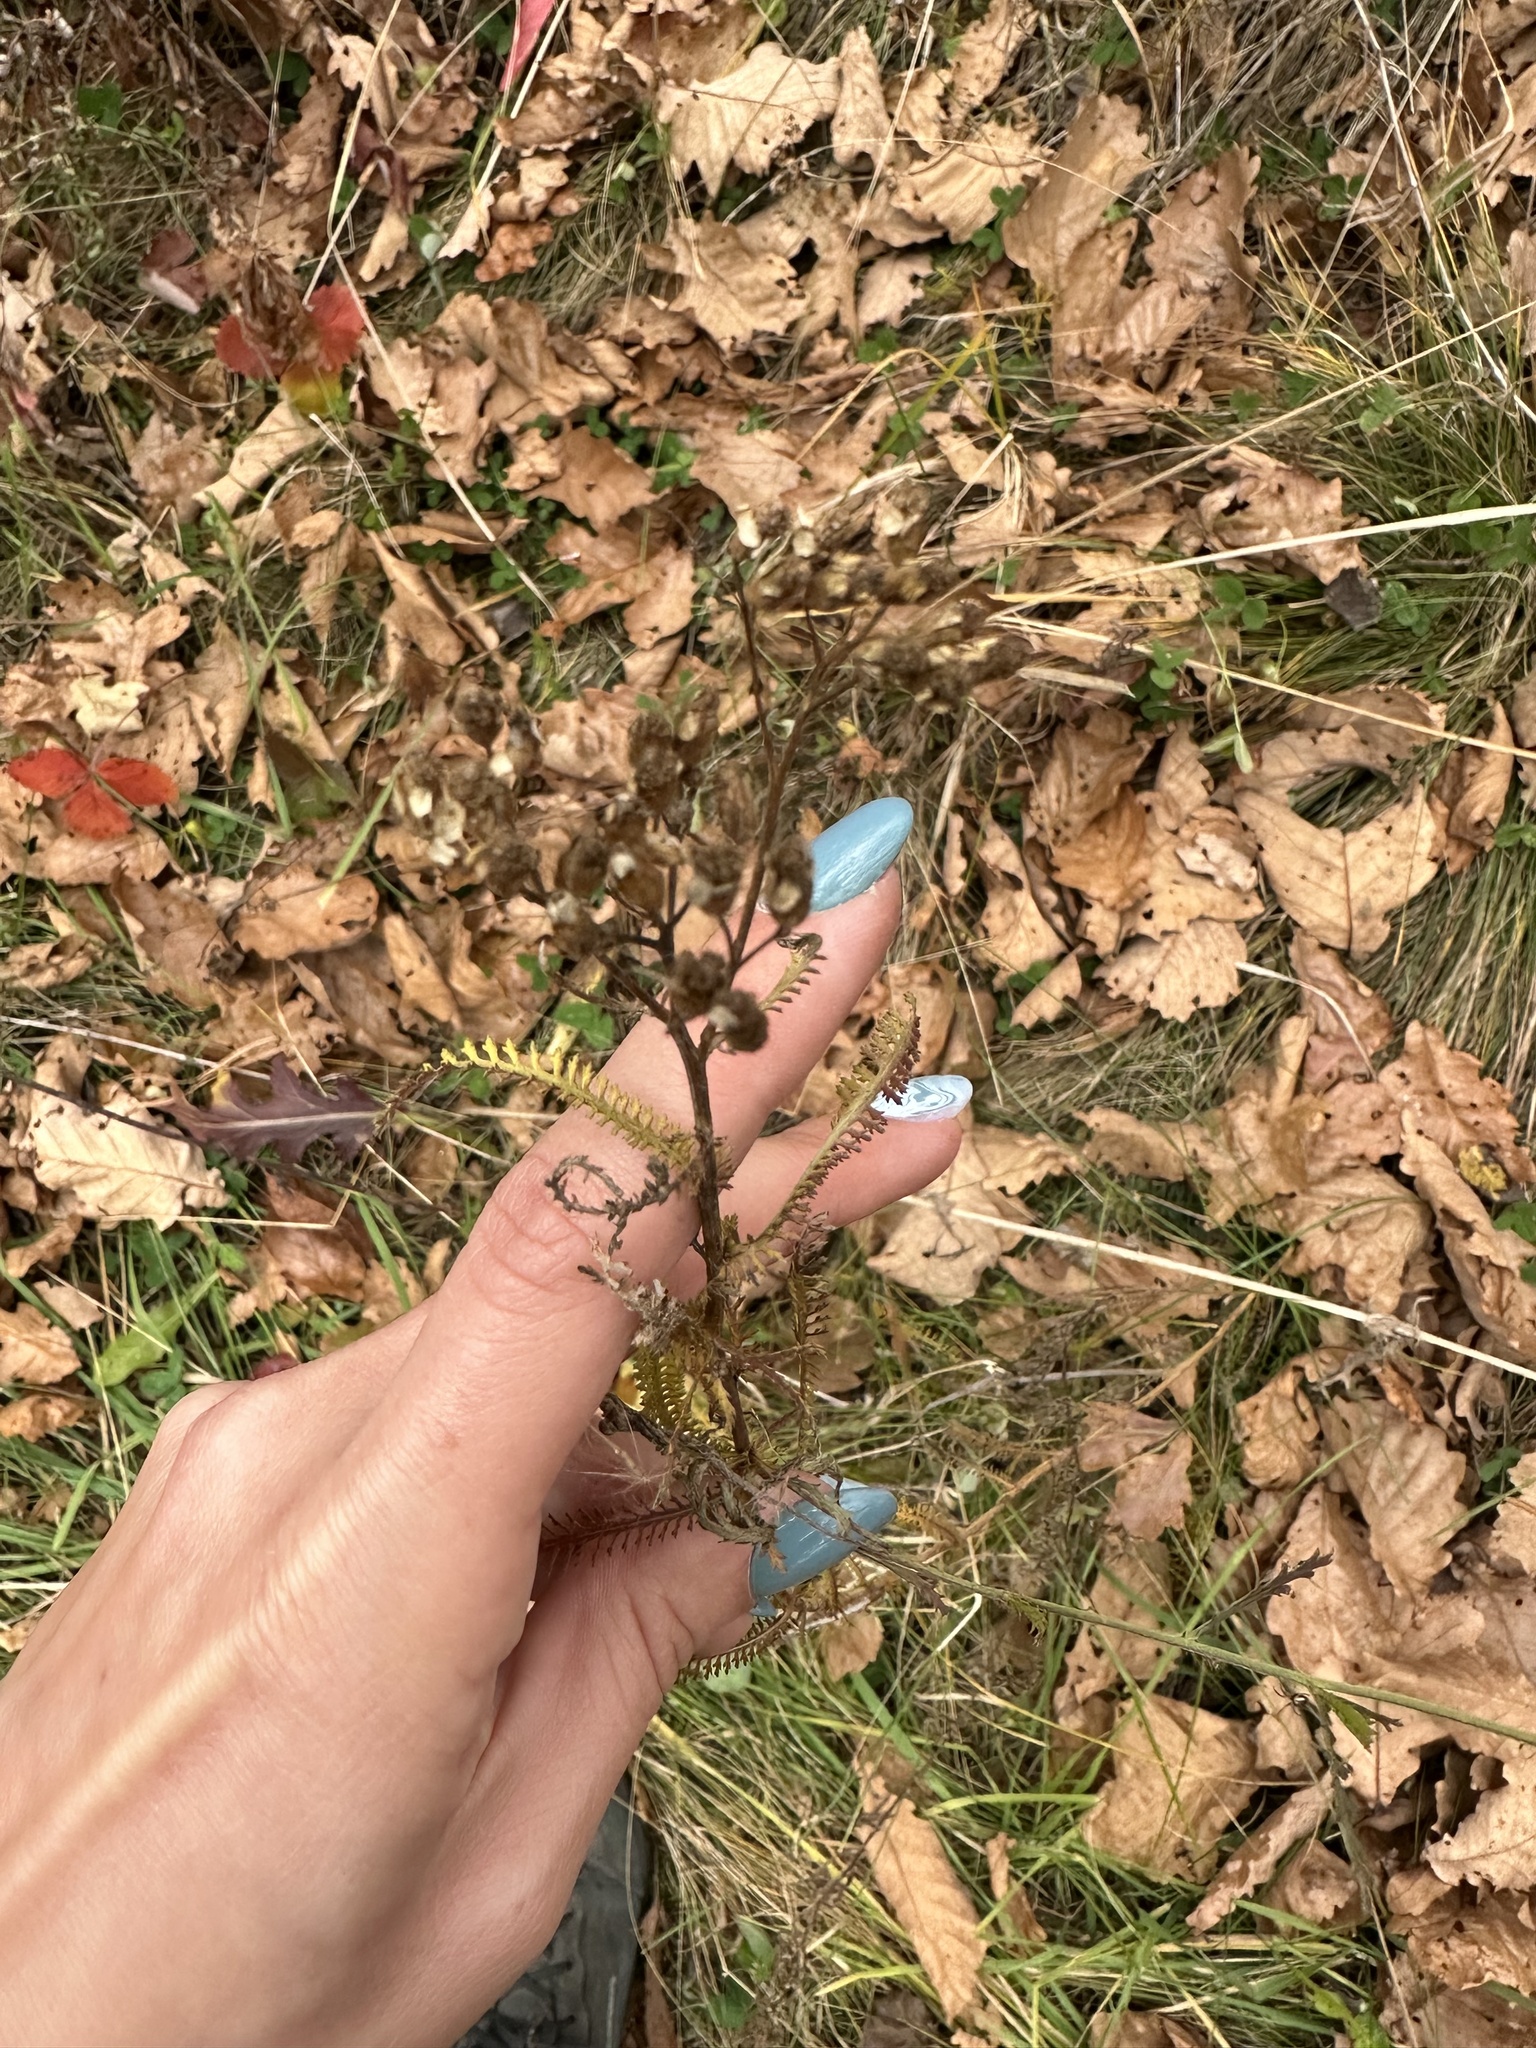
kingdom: Plantae
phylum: Tracheophyta
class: Magnoliopsida
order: Asterales
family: Asteraceae
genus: Achillea
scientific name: Achillea ptarmicoides
